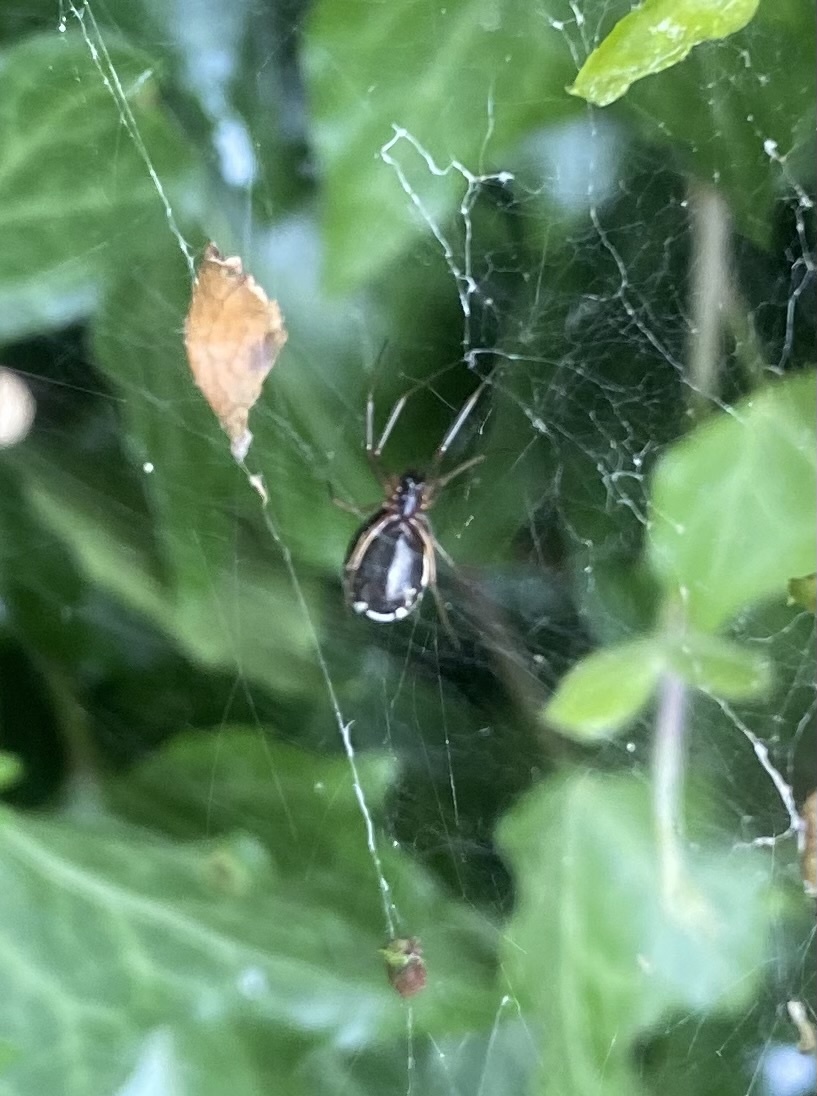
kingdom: Animalia
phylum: Arthropoda
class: Arachnida
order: Araneae
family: Linyphiidae
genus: Frontinellina
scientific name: Frontinellina frutetorum
